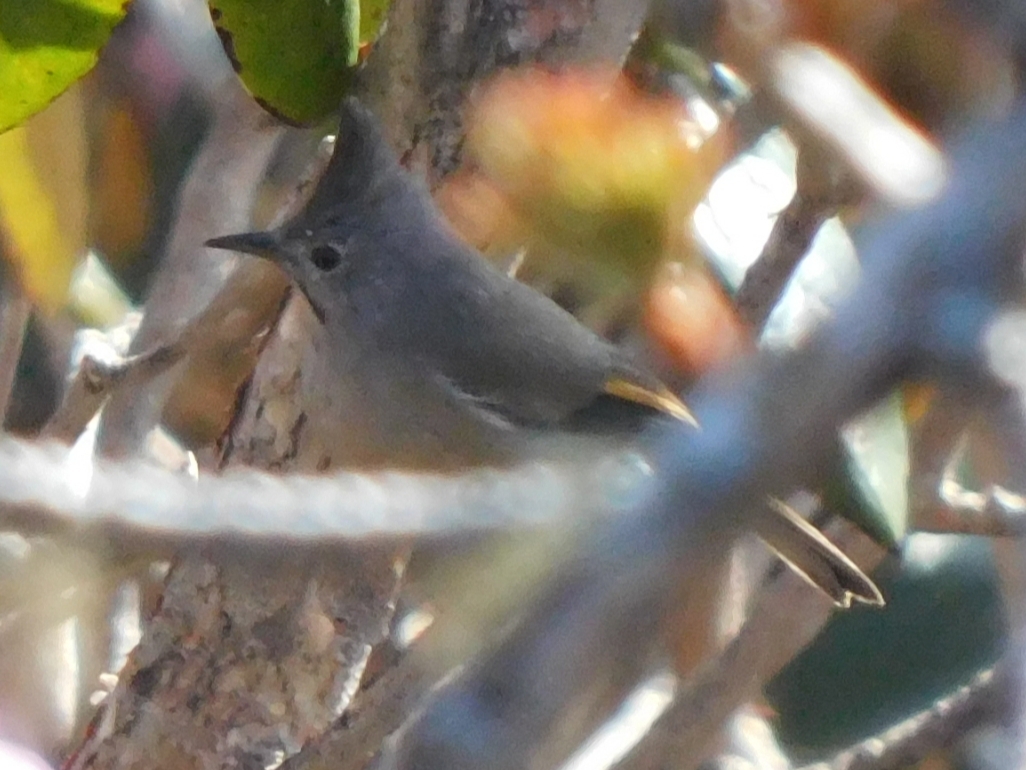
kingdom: Animalia
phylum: Chordata
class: Aves
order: Passeriformes
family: Zosteropidae
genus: Yuhina
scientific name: Yuhina gularis
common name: Stripe-throated yuhina
